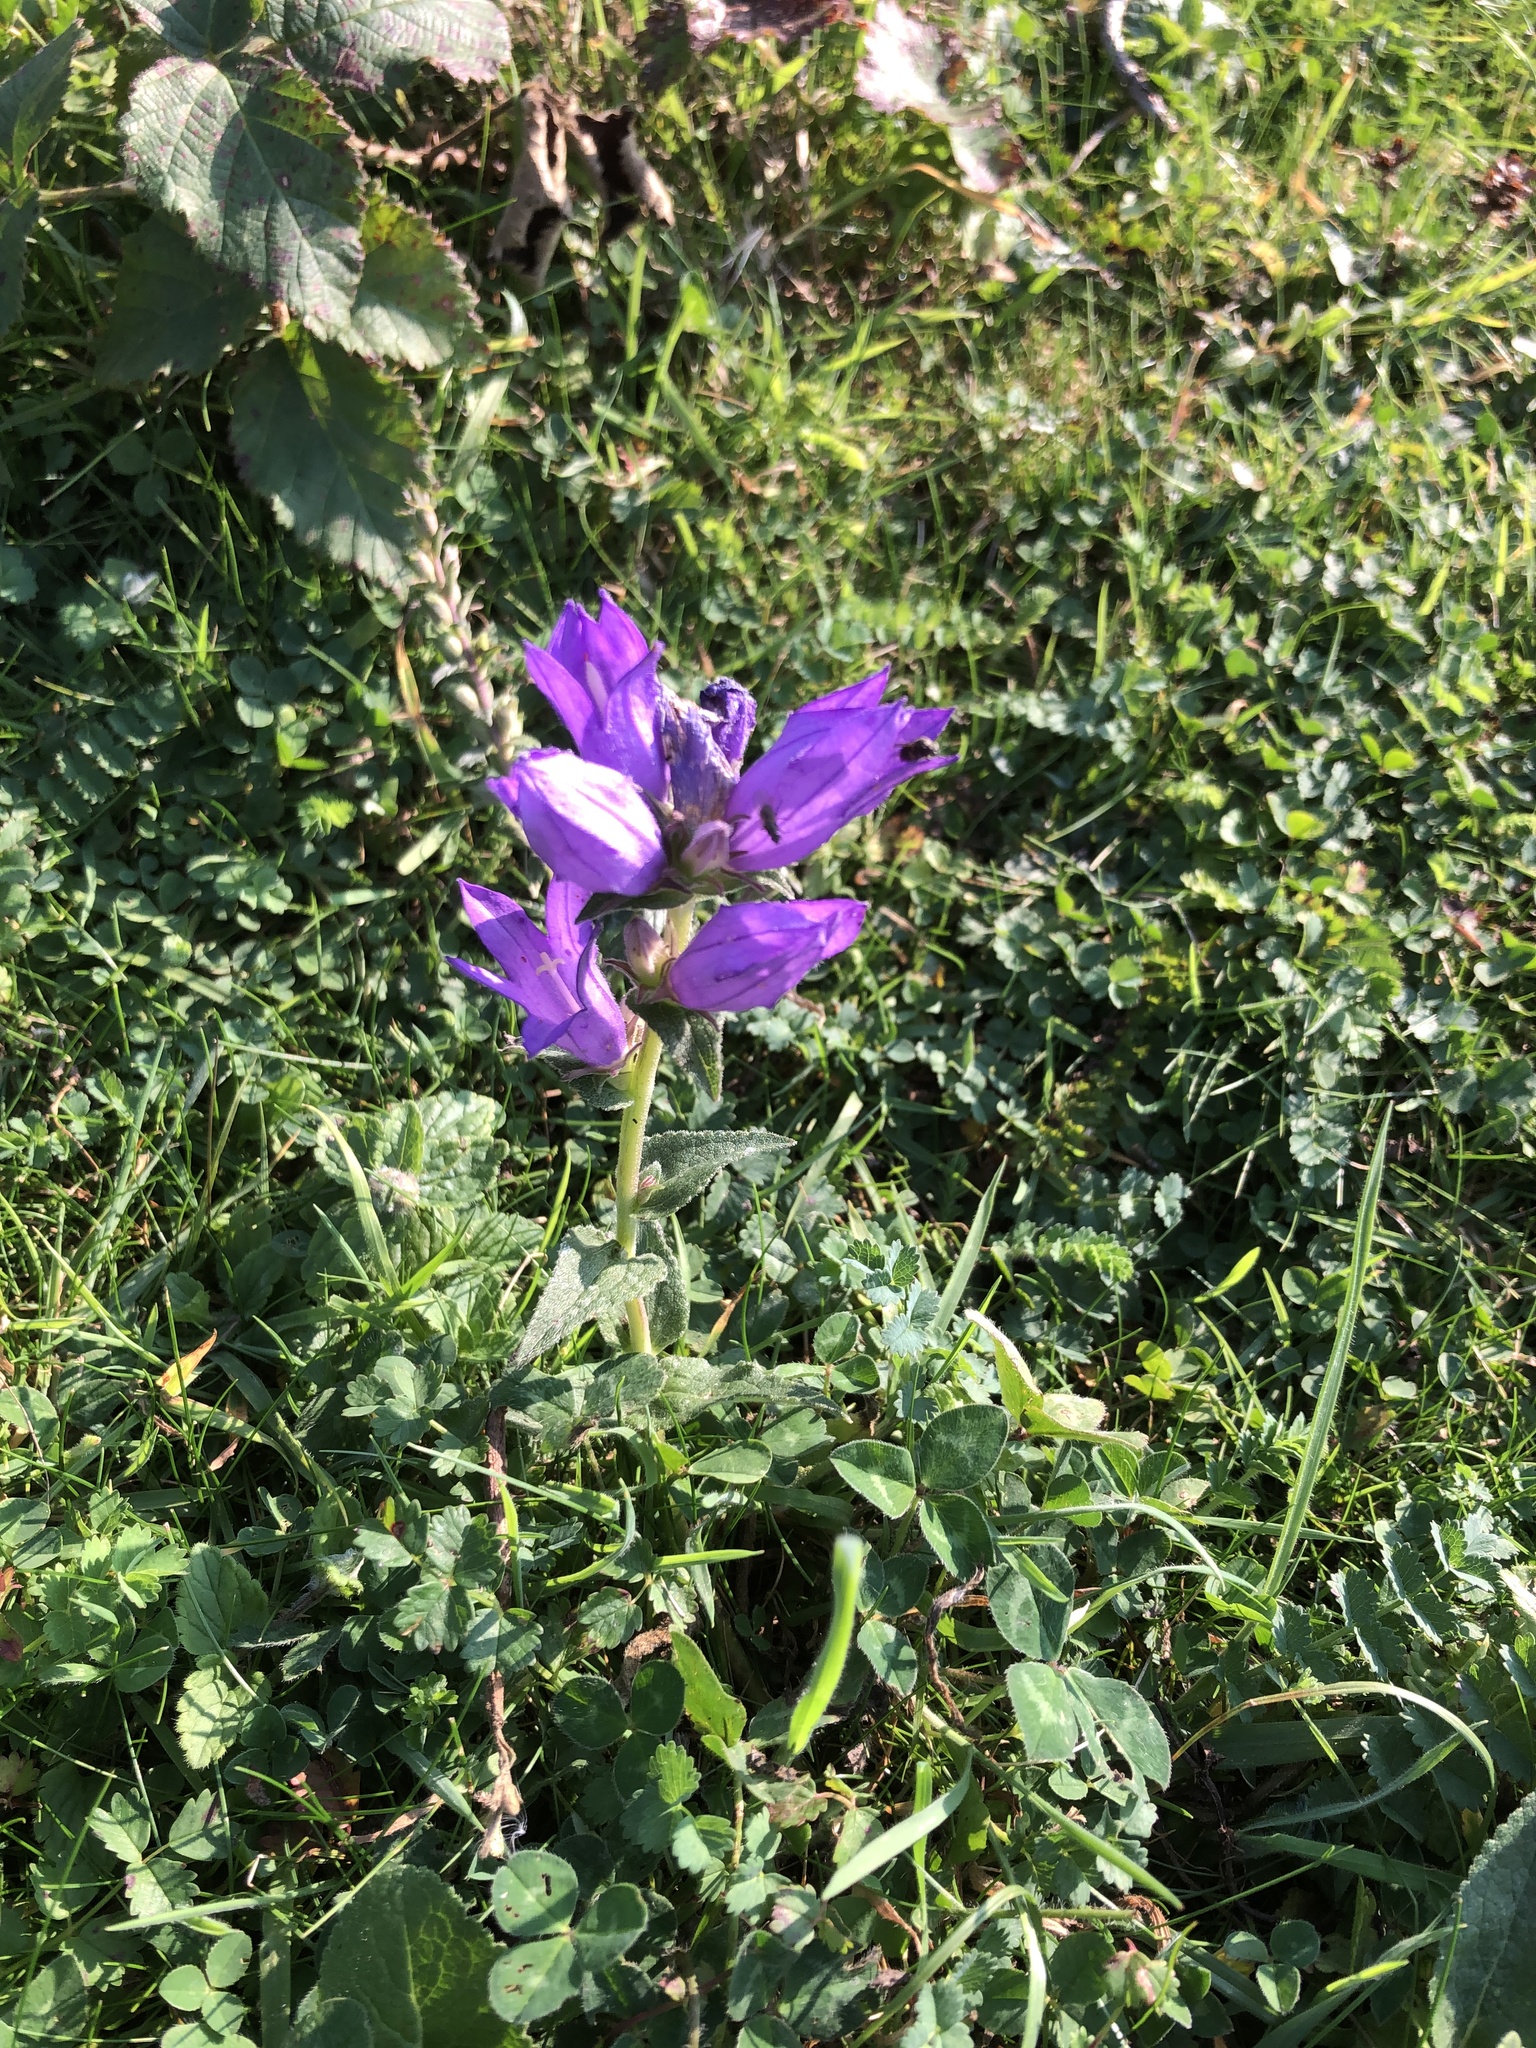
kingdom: Plantae
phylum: Tracheophyta
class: Magnoliopsida
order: Asterales
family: Campanulaceae
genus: Campanula
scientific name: Campanula glomerata
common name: Clustered bellflower
